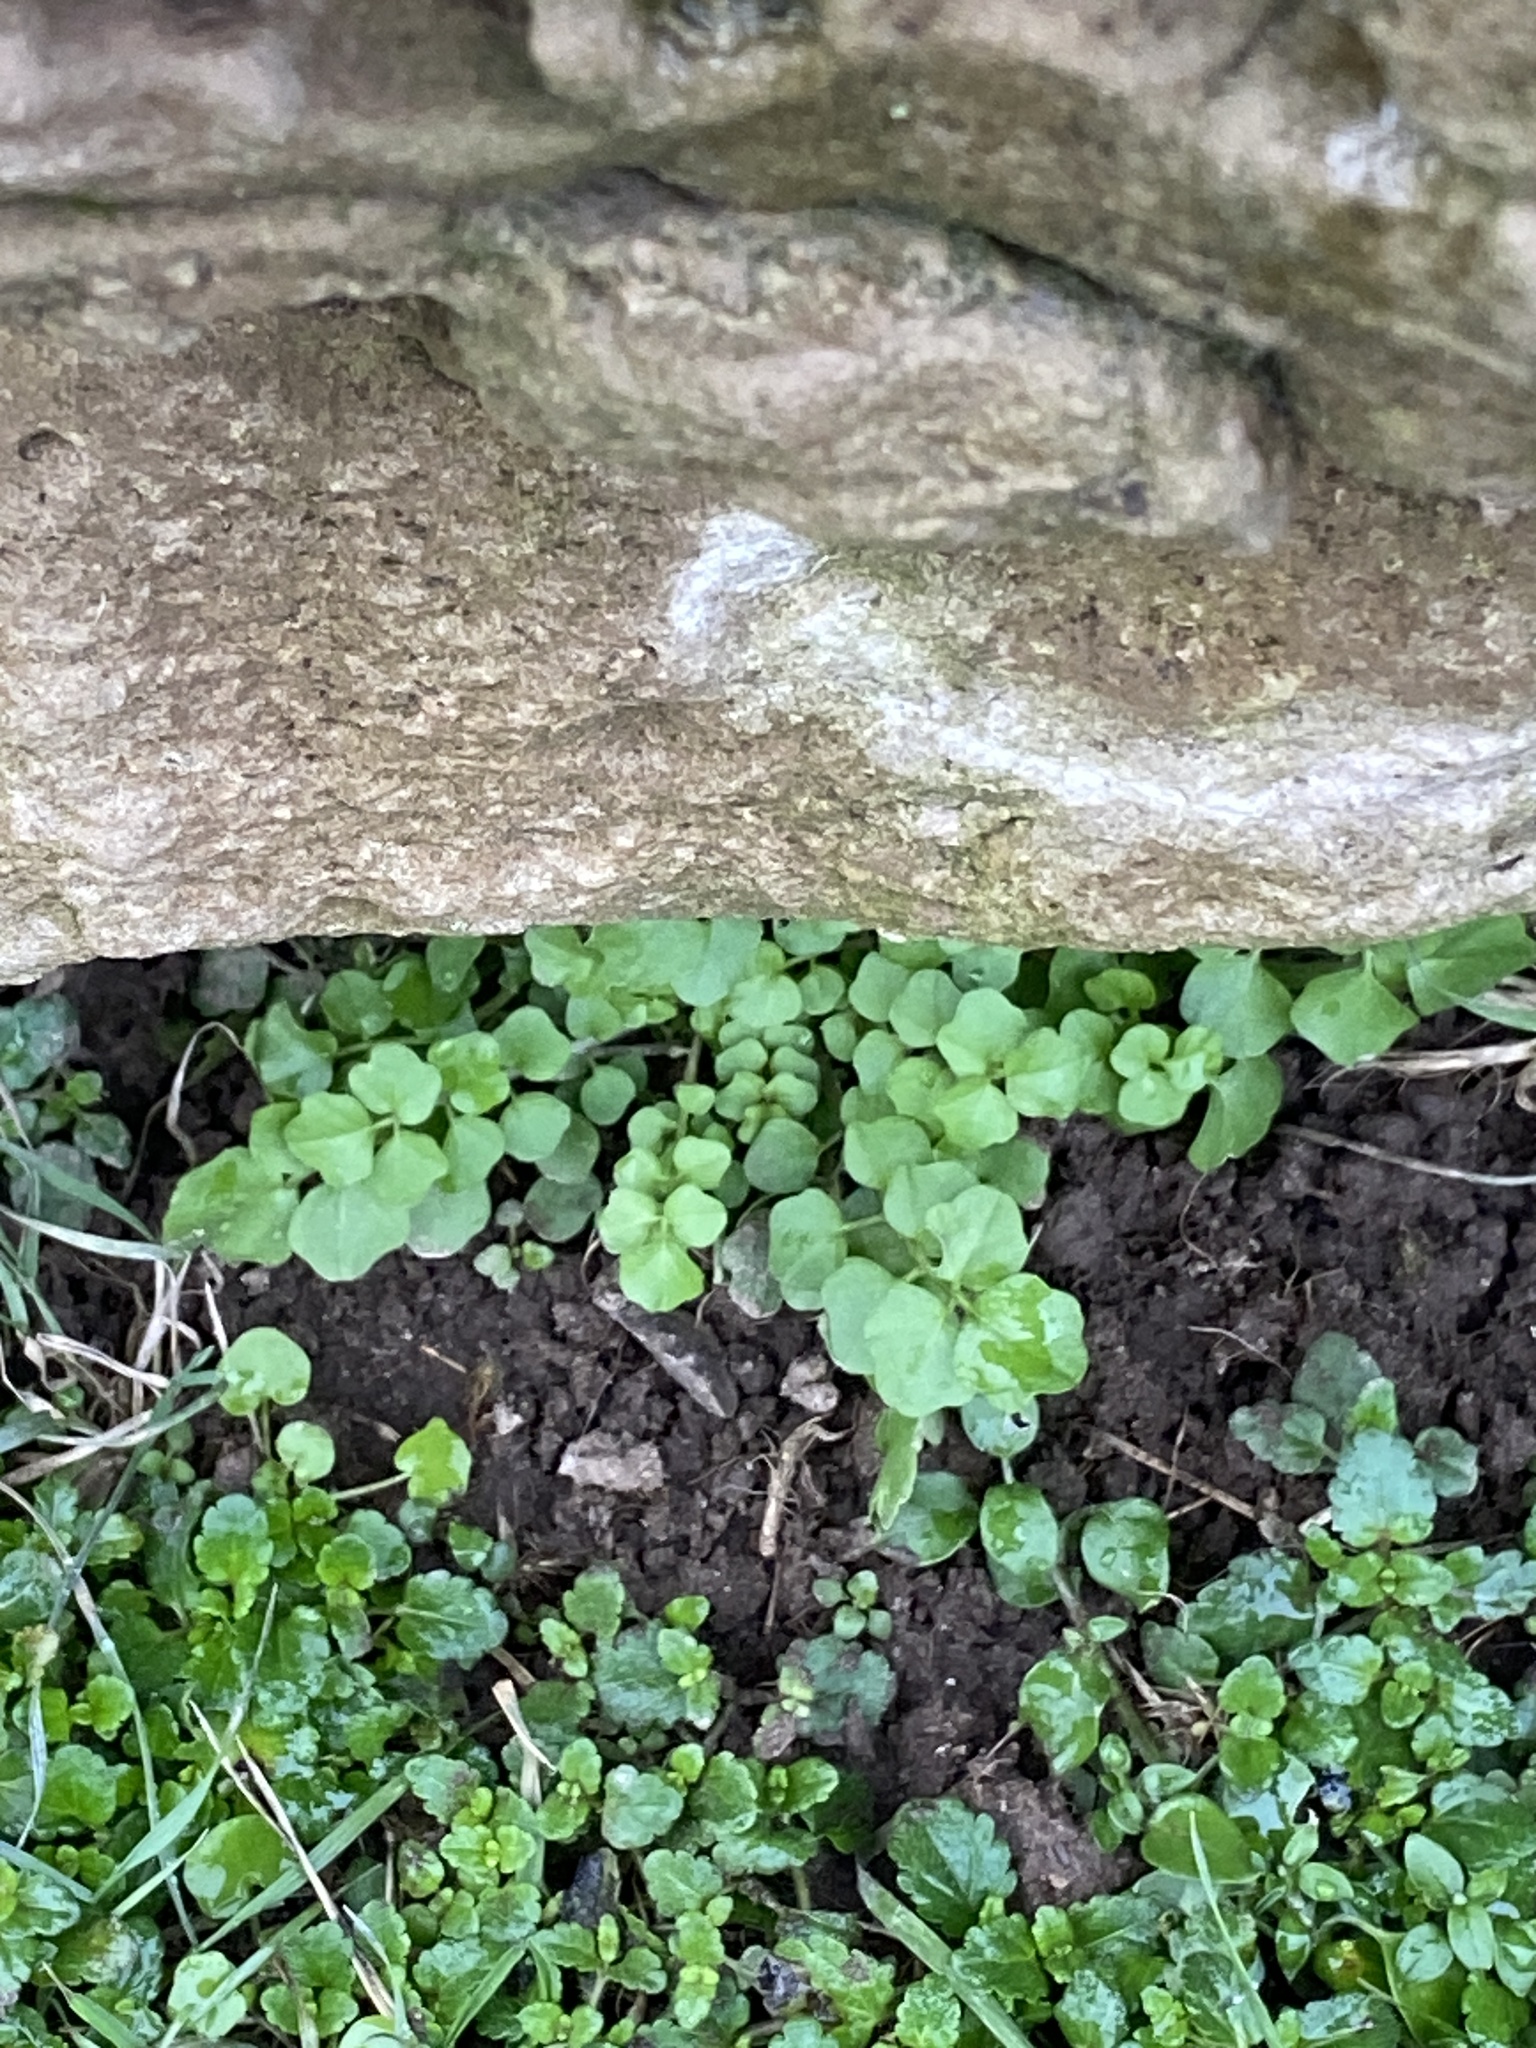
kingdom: Plantae
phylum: Tracheophyta
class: Magnoliopsida
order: Brassicales
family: Brassicaceae
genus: Cardamine
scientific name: Cardamine hirsuta
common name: Hairy bittercress
